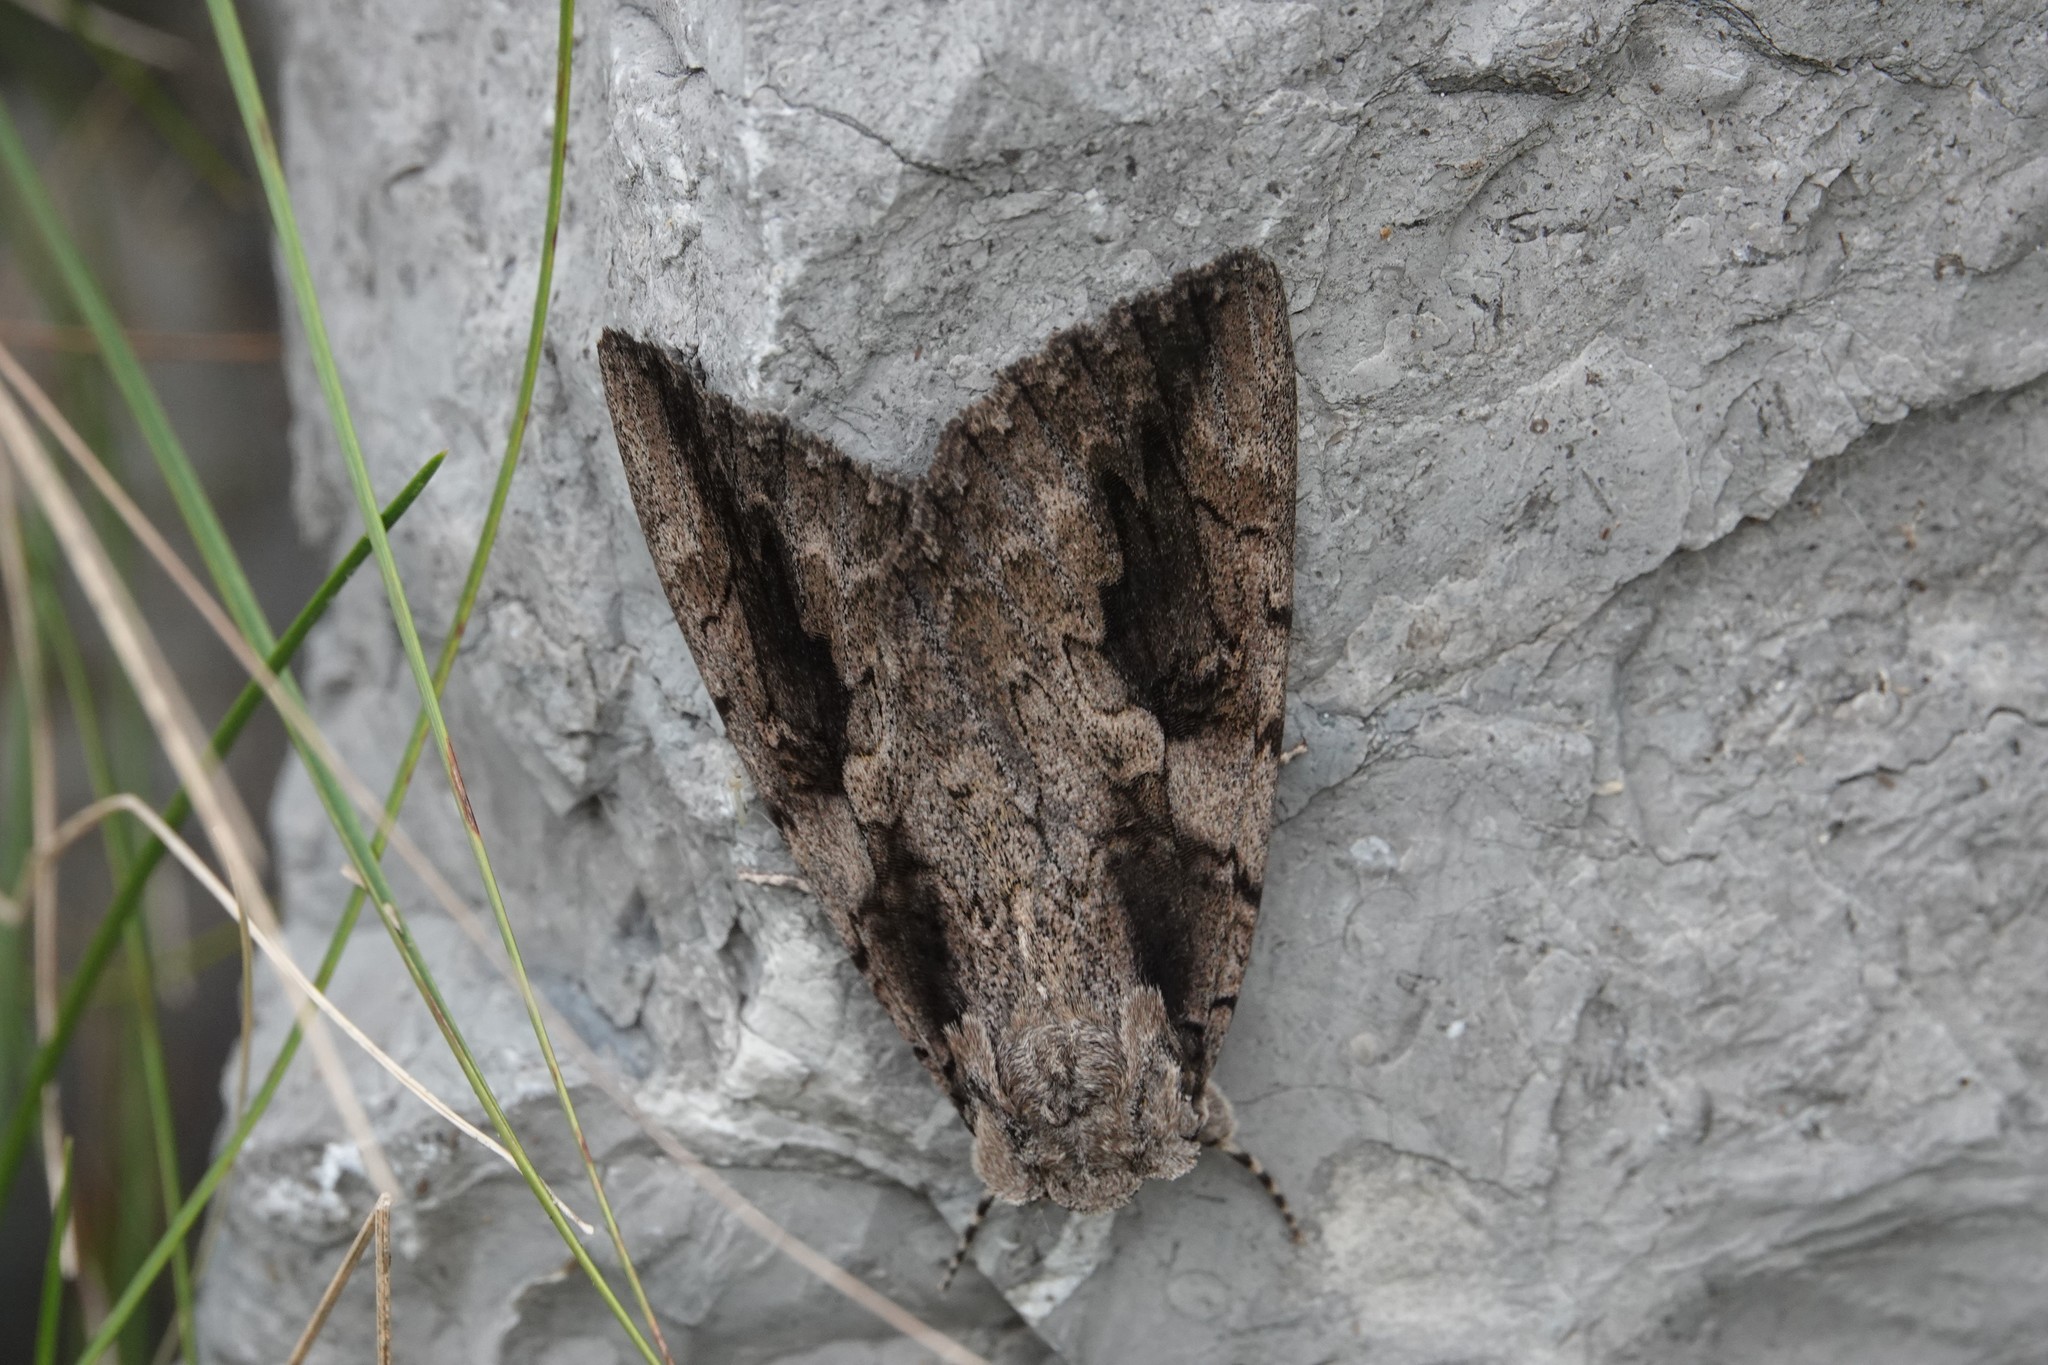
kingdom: Animalia
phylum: Arthropoda
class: Insecta
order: Lepidoptera
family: Erebidae
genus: Catocala
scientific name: Catocala amatrix
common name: Sweetheart underwing
